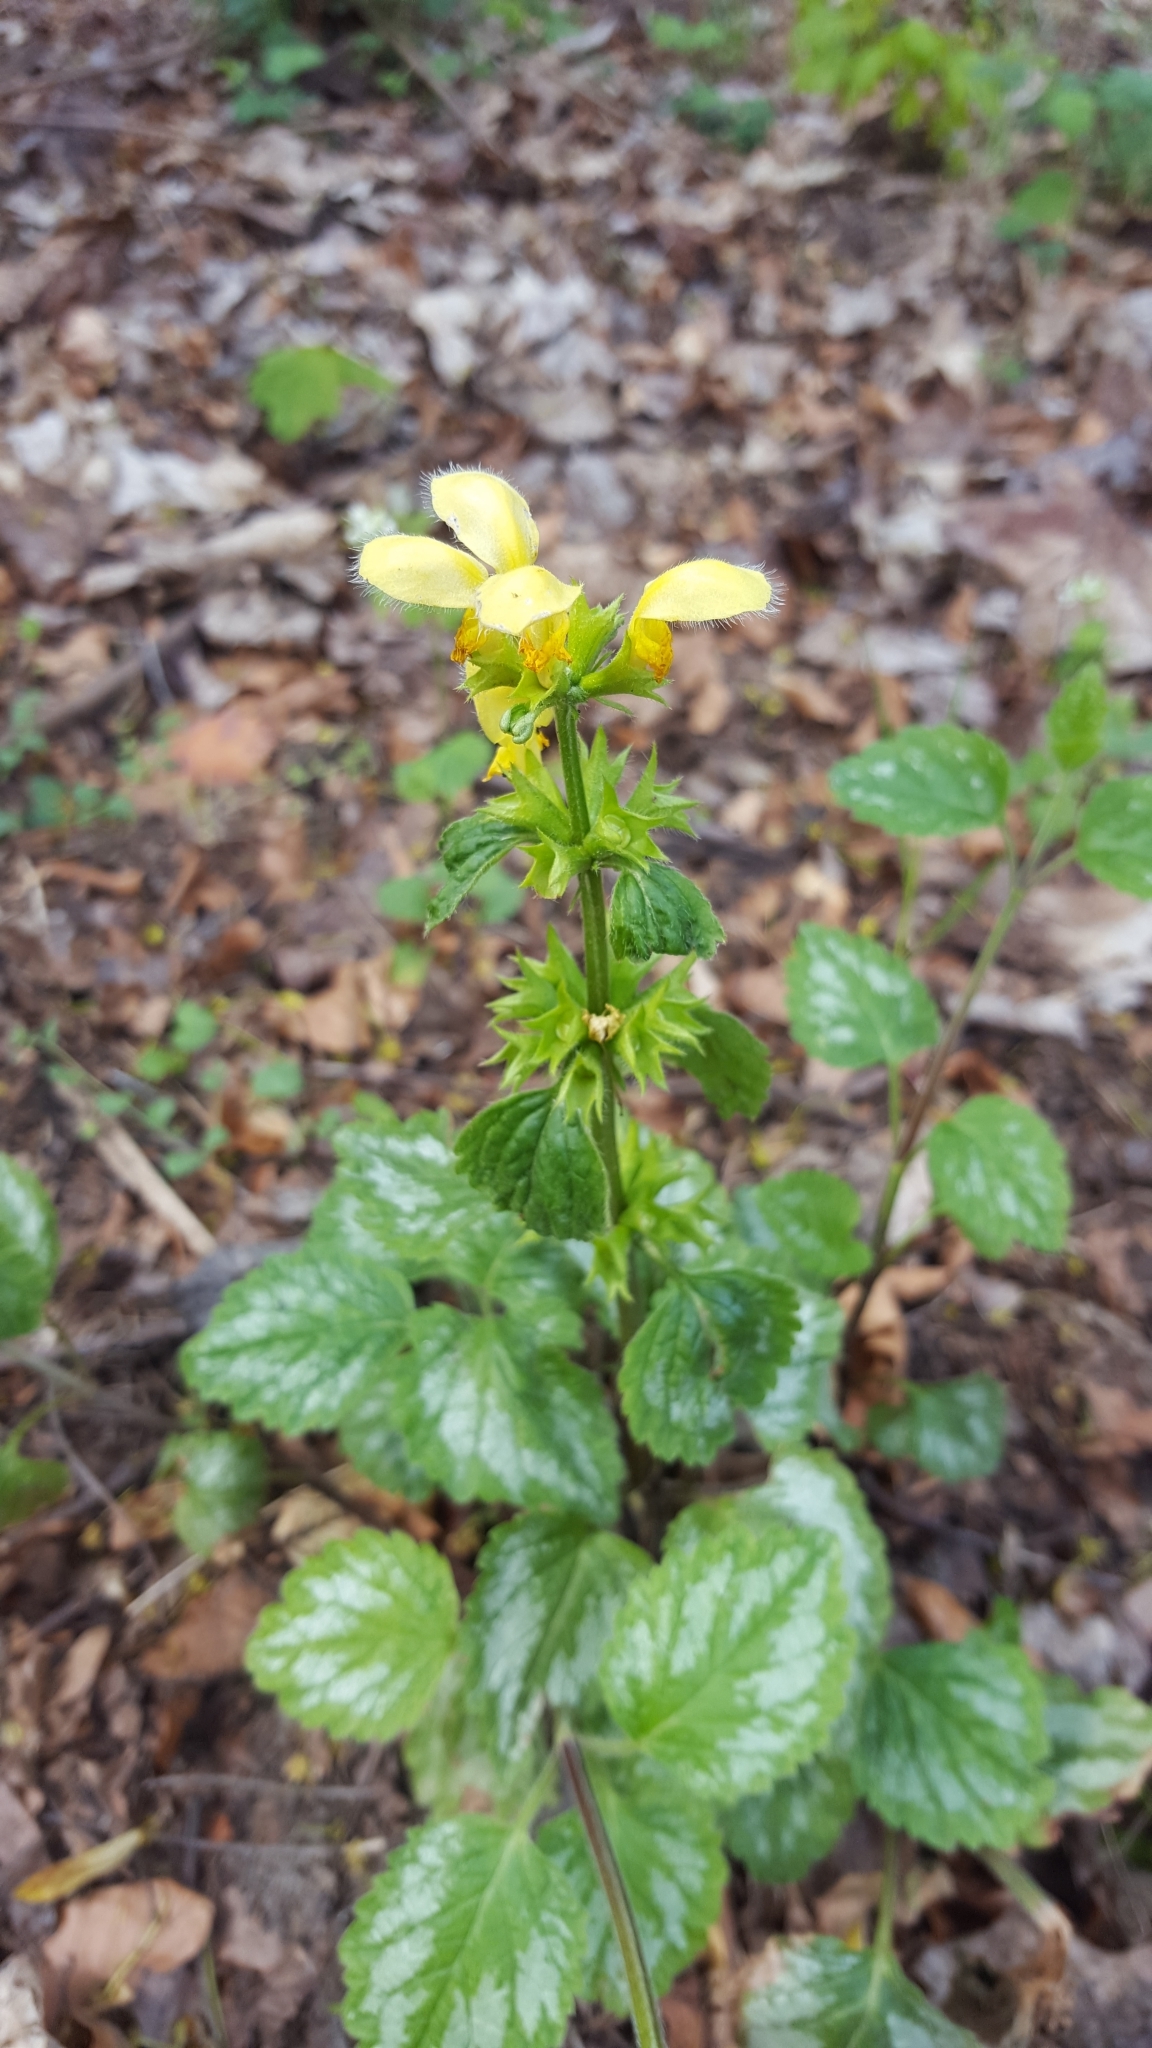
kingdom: Plantae
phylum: Tracheophyta
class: Magnoliopsida
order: Lamiales
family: Lamiaceae
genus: Lamium
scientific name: Lamium galeobdolon
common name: Yellow archangel
